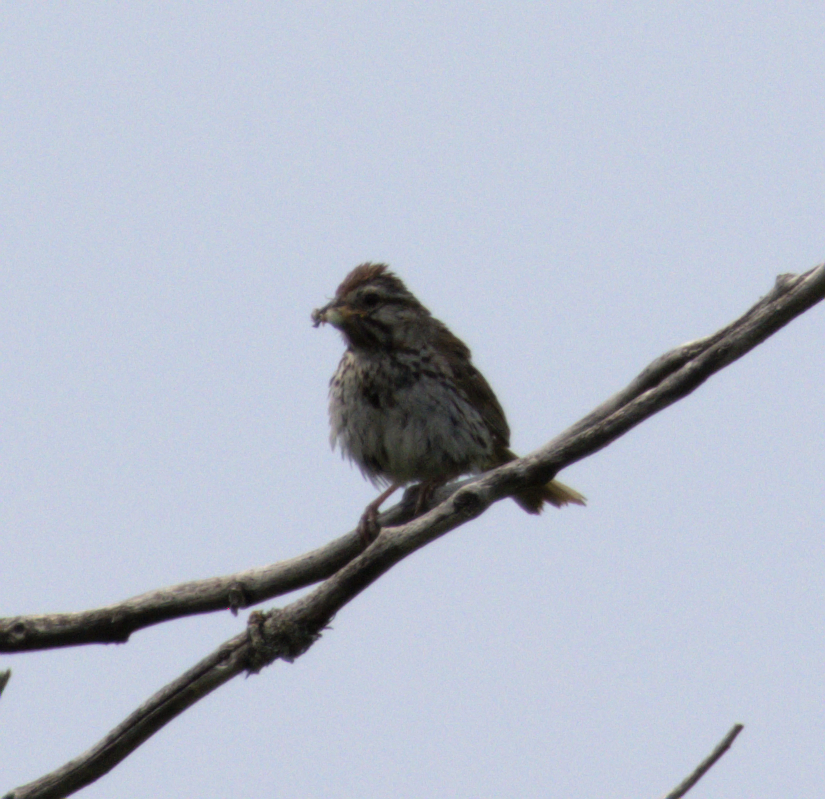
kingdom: Animalia
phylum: Chordata
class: Aves
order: Passeriformes
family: Passerellidae
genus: Melospiza
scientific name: Melospiza melodia
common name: Song sparrow
